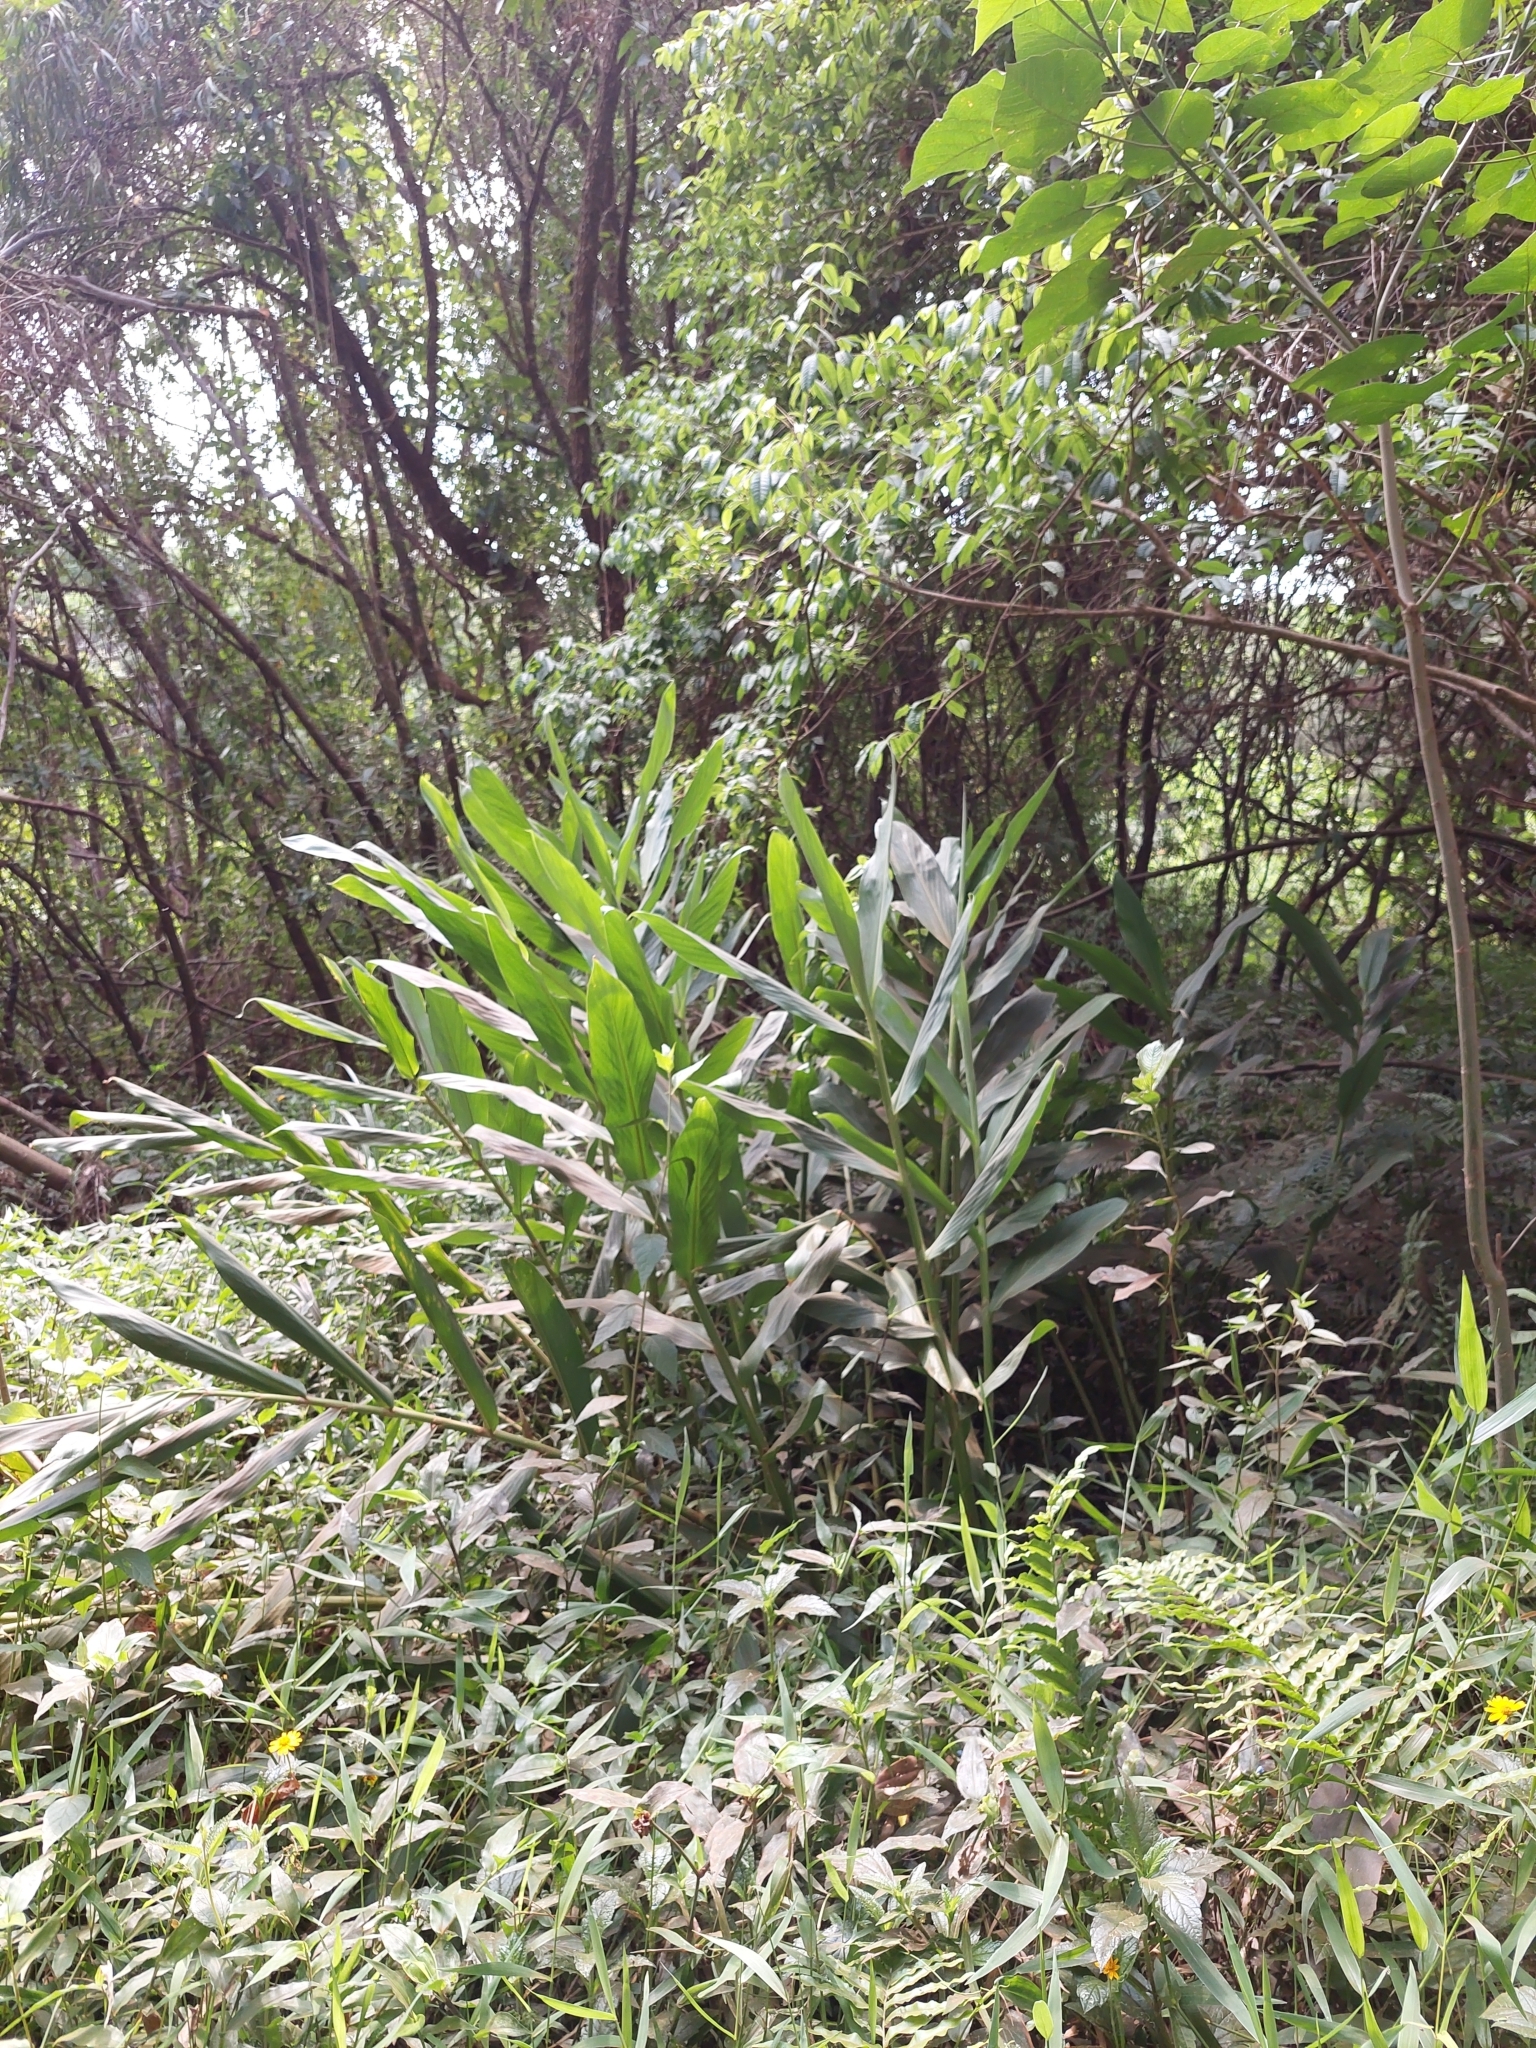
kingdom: Plantae
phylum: Tracheophyta
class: Liliopsida
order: Zingiberales
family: Zingiberaceae
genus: Hedychium
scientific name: Hedychium coronarium
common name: White garland-lily
